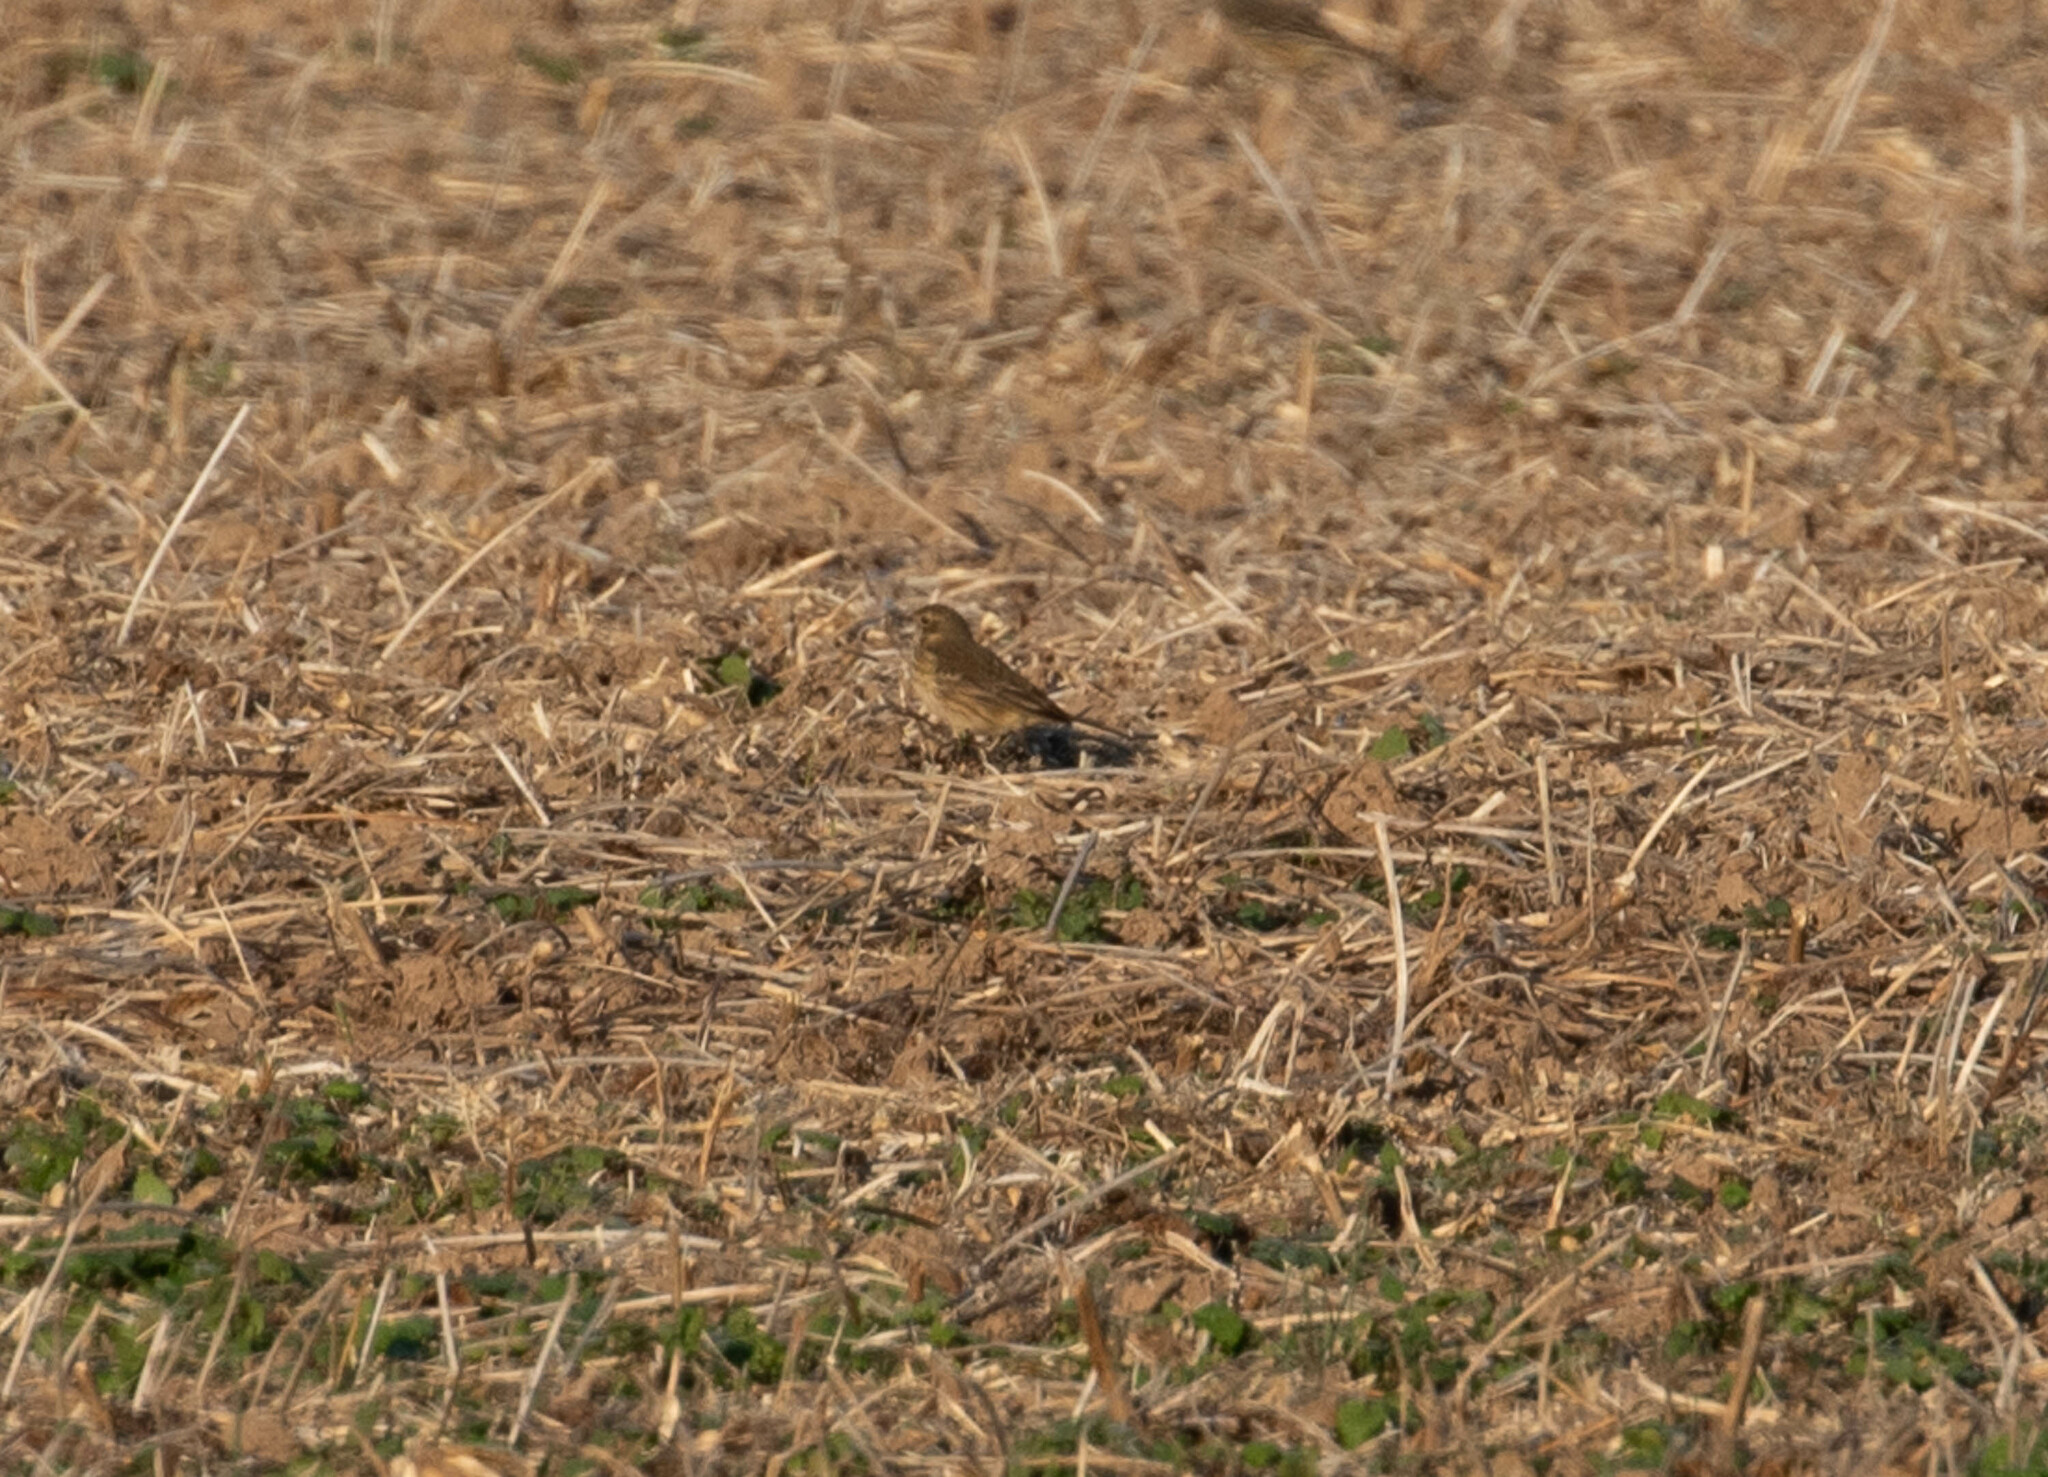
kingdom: Animalia
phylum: Chordata
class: Aves
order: Passeriformes
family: Motacillidae
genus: Anthus
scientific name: Anthus rubescens
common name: Buff-bellied pipit
